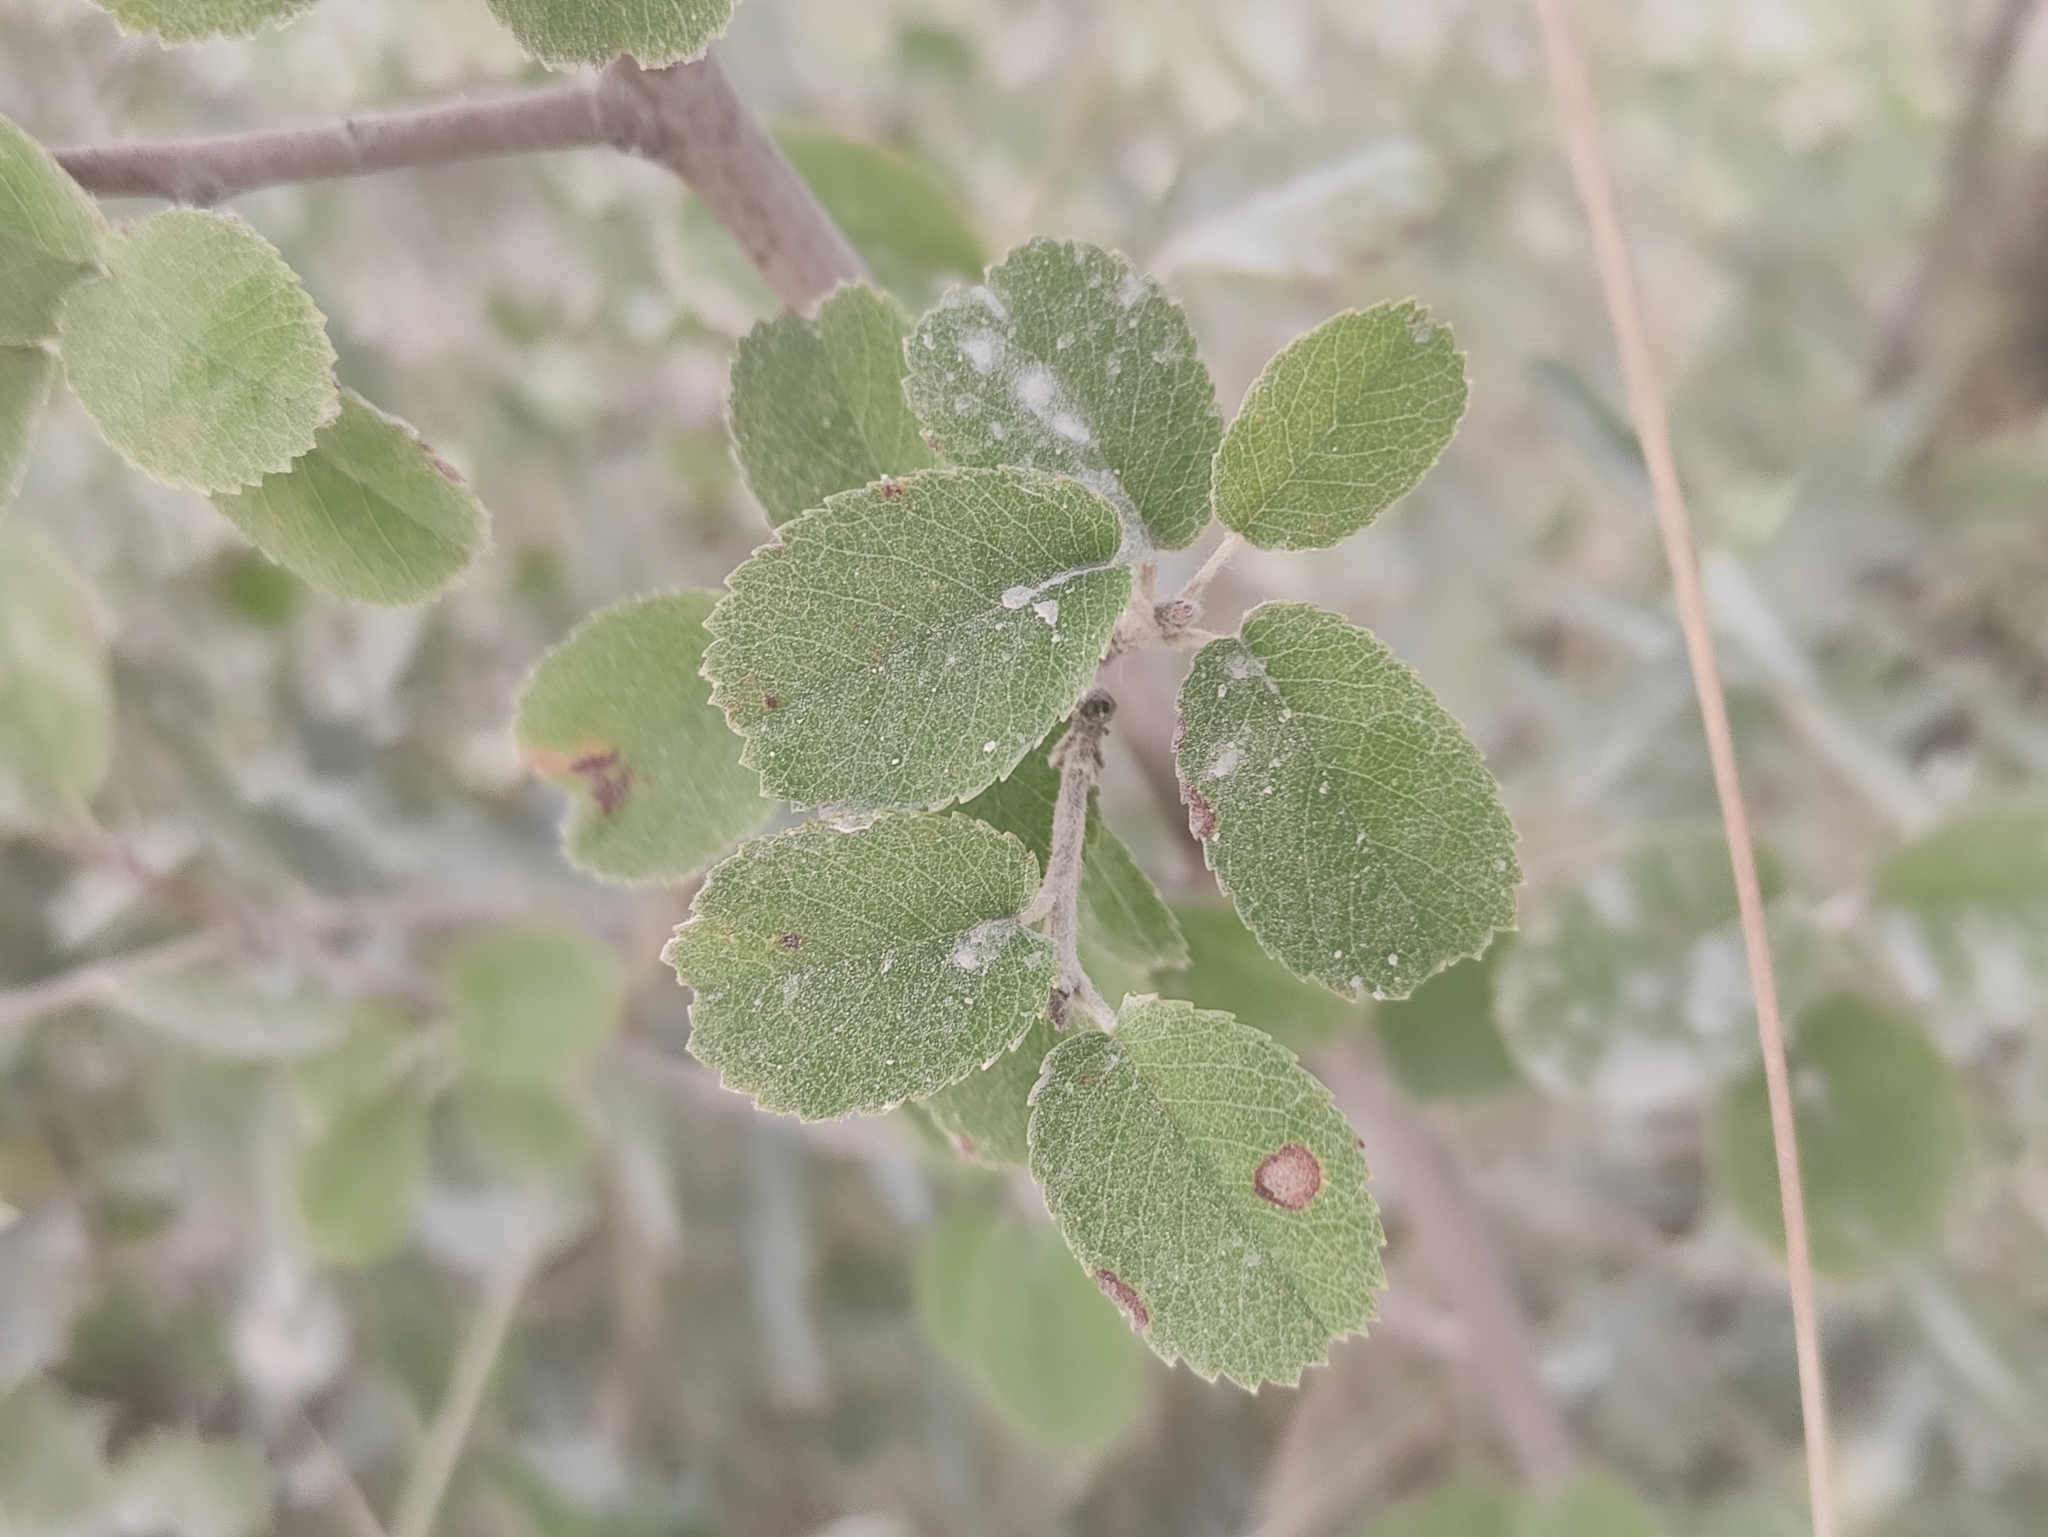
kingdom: Plantae
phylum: Tracheophyta
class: Magnoliopsida
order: Rosales
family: Rosaceae
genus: Amelanchier
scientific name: Amelanchier ovalis
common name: Serviceberry
